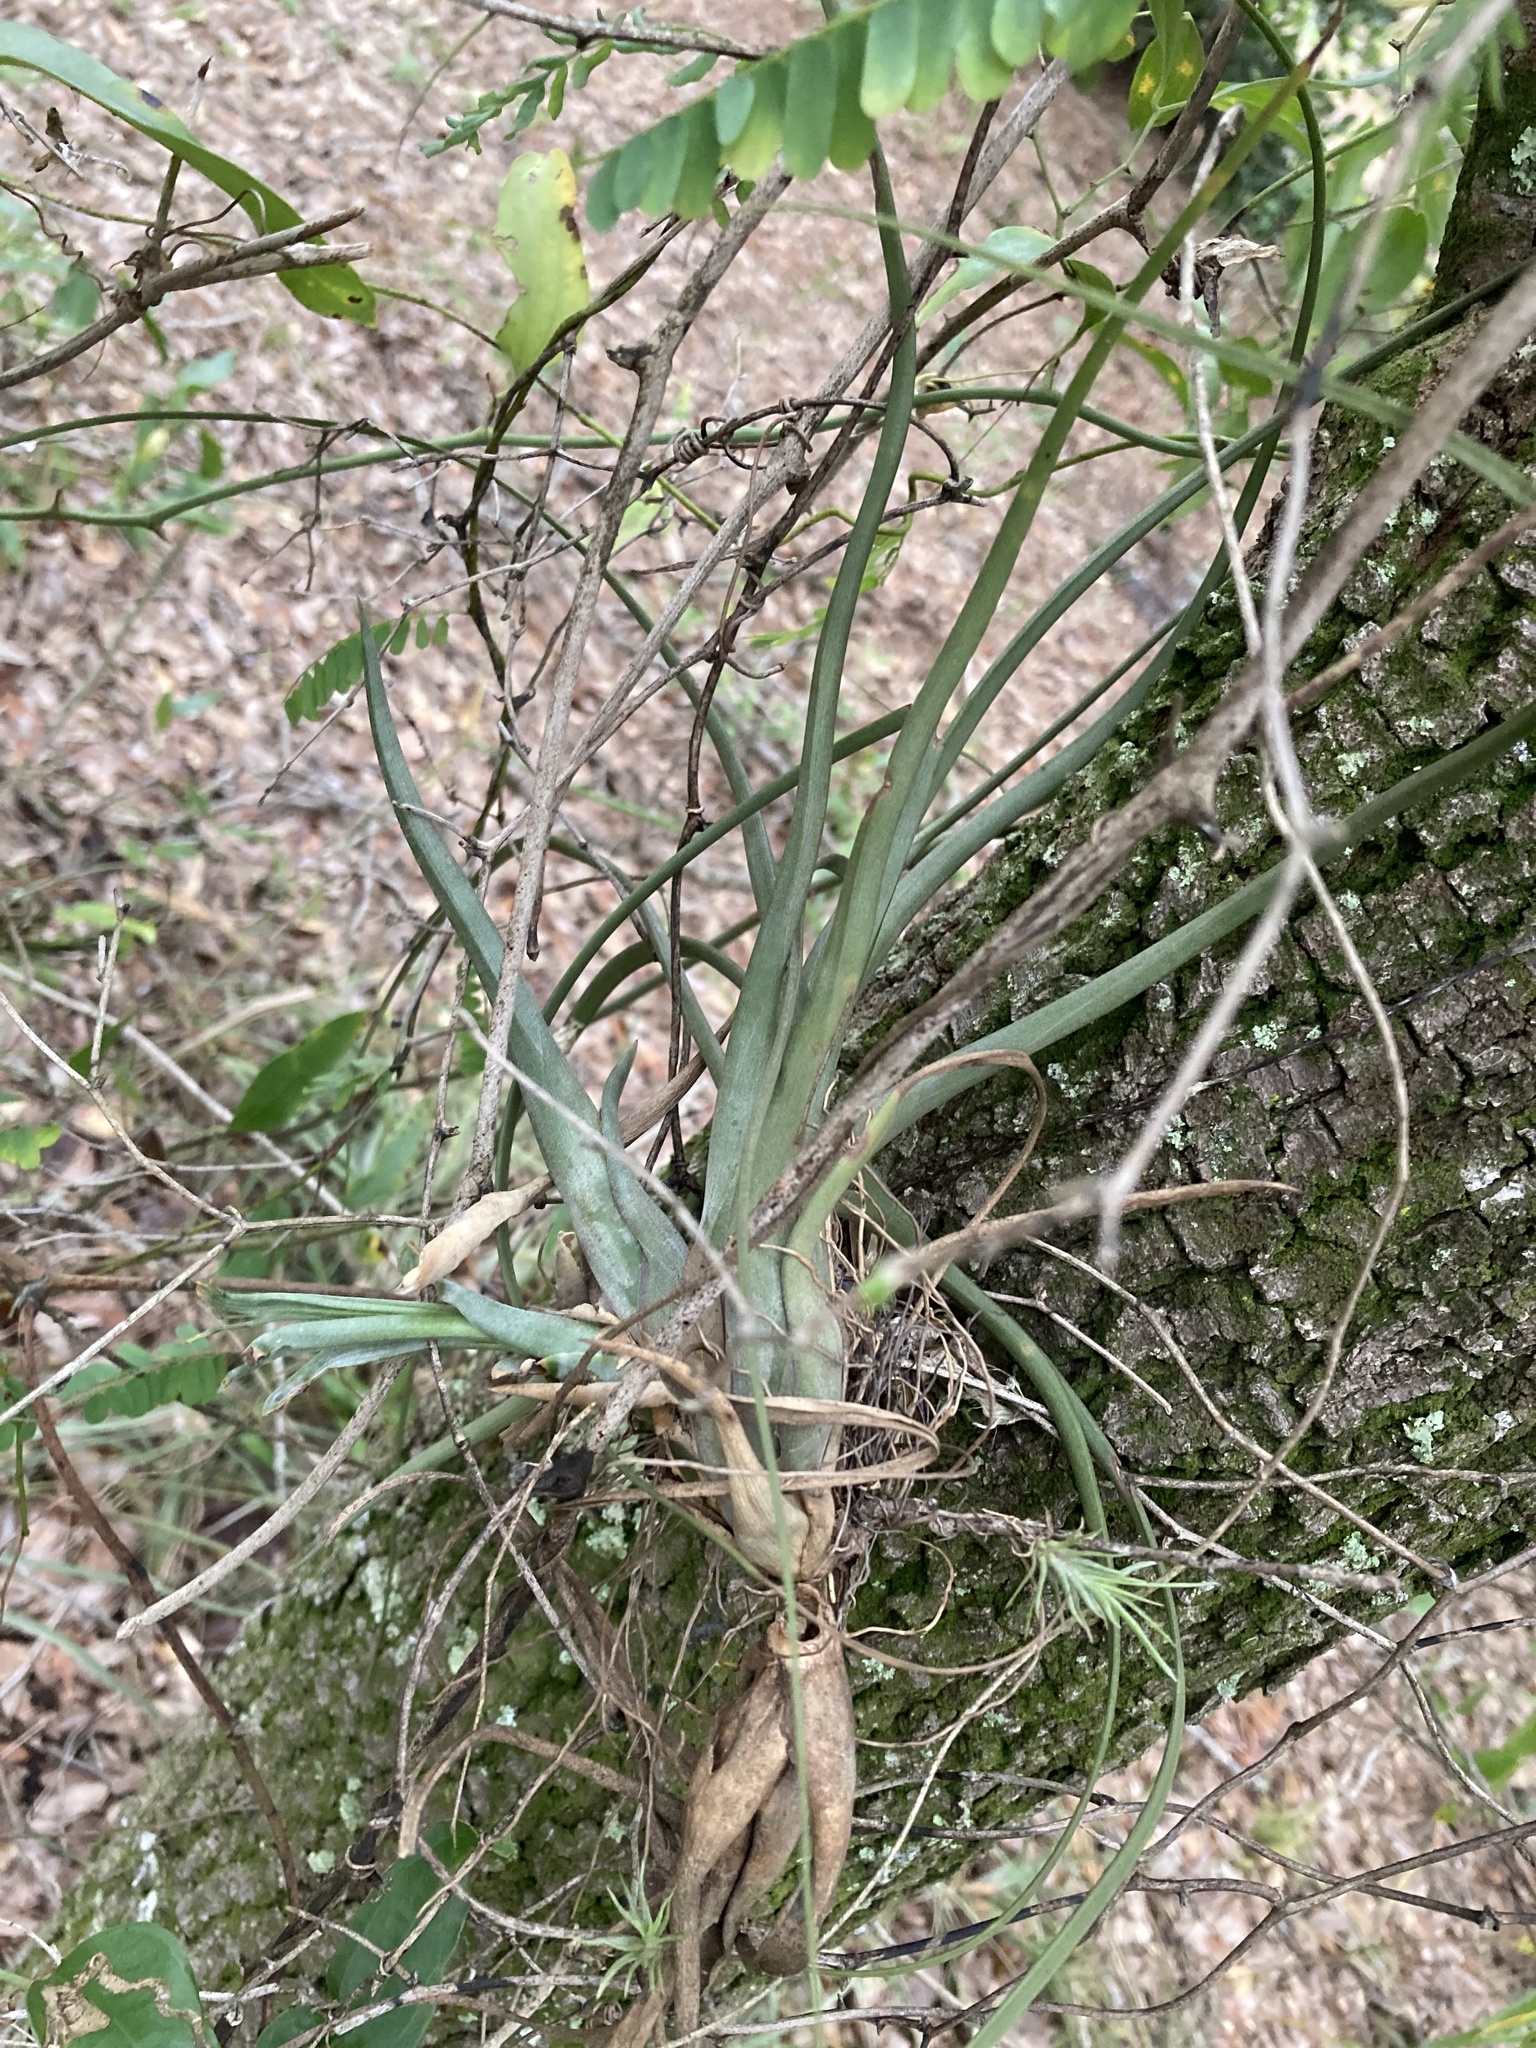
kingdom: Plantae
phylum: Tracheophyta
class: Liliopsida
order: Poales
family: Bromeliaceae
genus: Tillandsia
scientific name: Tillandsia balbisiana
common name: Northern needleleaf
